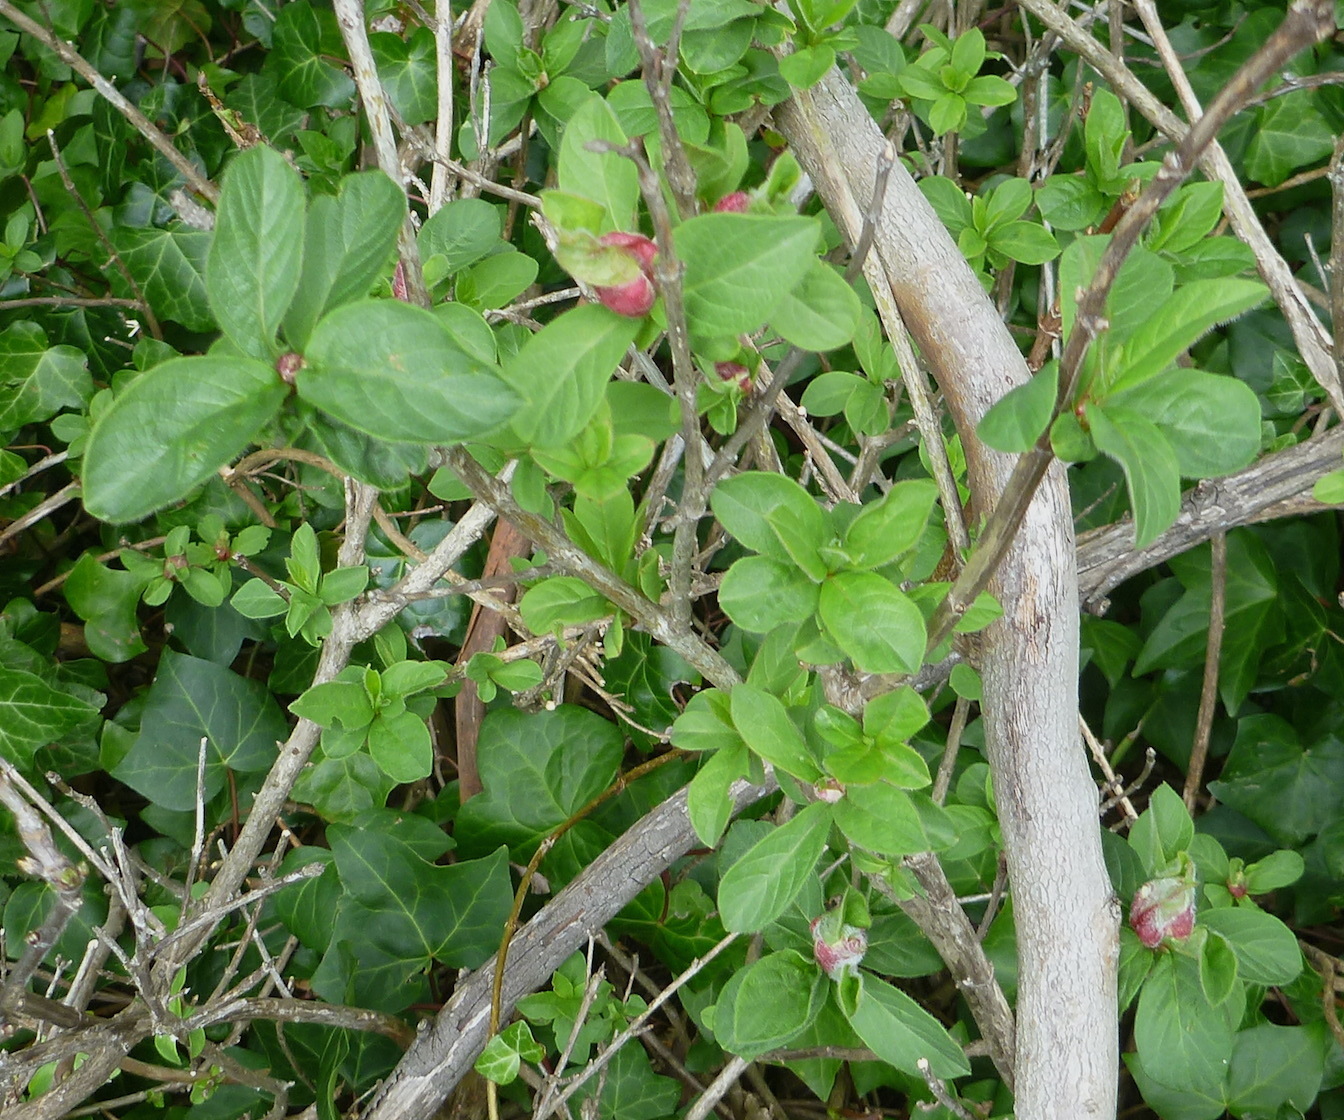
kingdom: Plantae
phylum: Tracheophyta
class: Magnoliopsida
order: Dipsacales
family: Caprifoliaceae
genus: Lonicera
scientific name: Lonicera involucrata
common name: Californian honeysuckle
